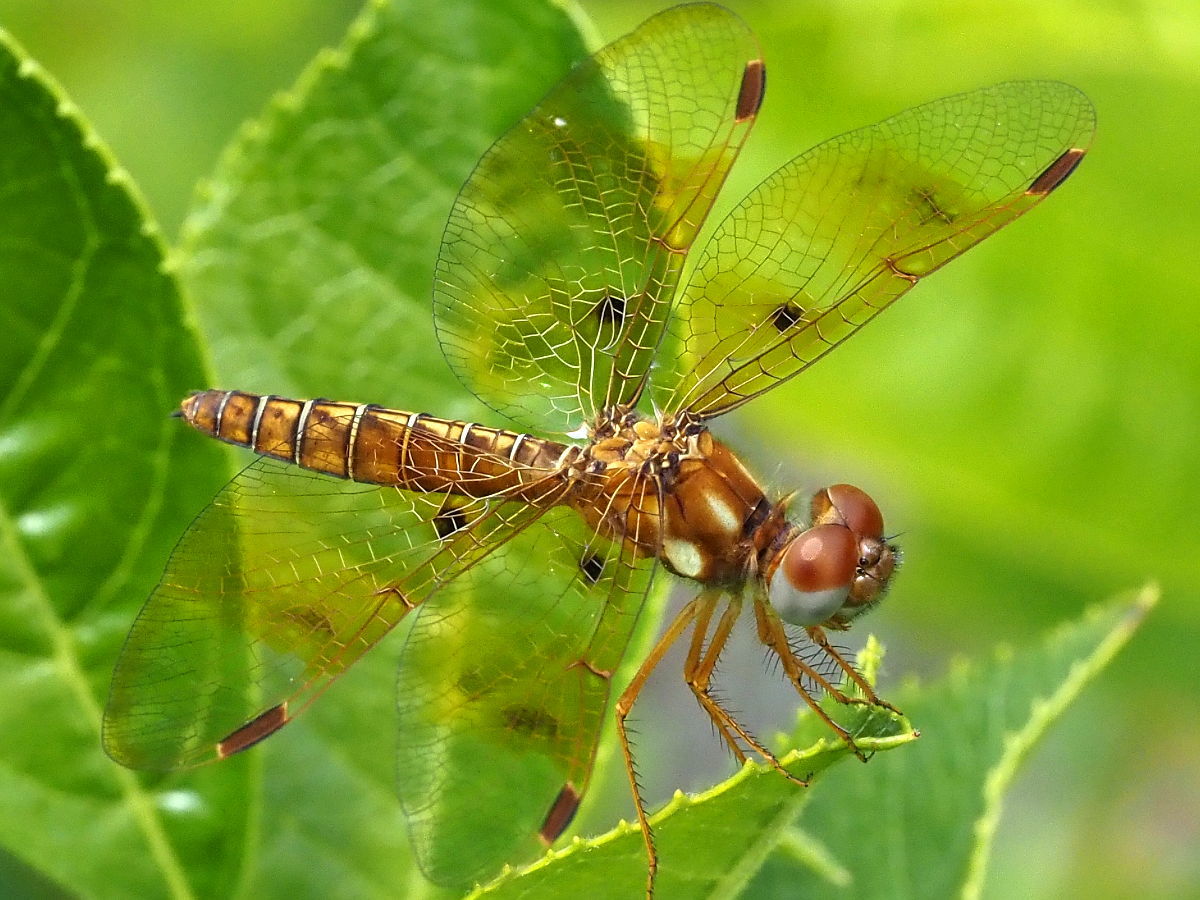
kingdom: Animalia
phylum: Arthropoda
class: Insecta
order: Odonata
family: Libellulidae
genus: Perithemis
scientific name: Perithemis tenera
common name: Eastern amberwing
